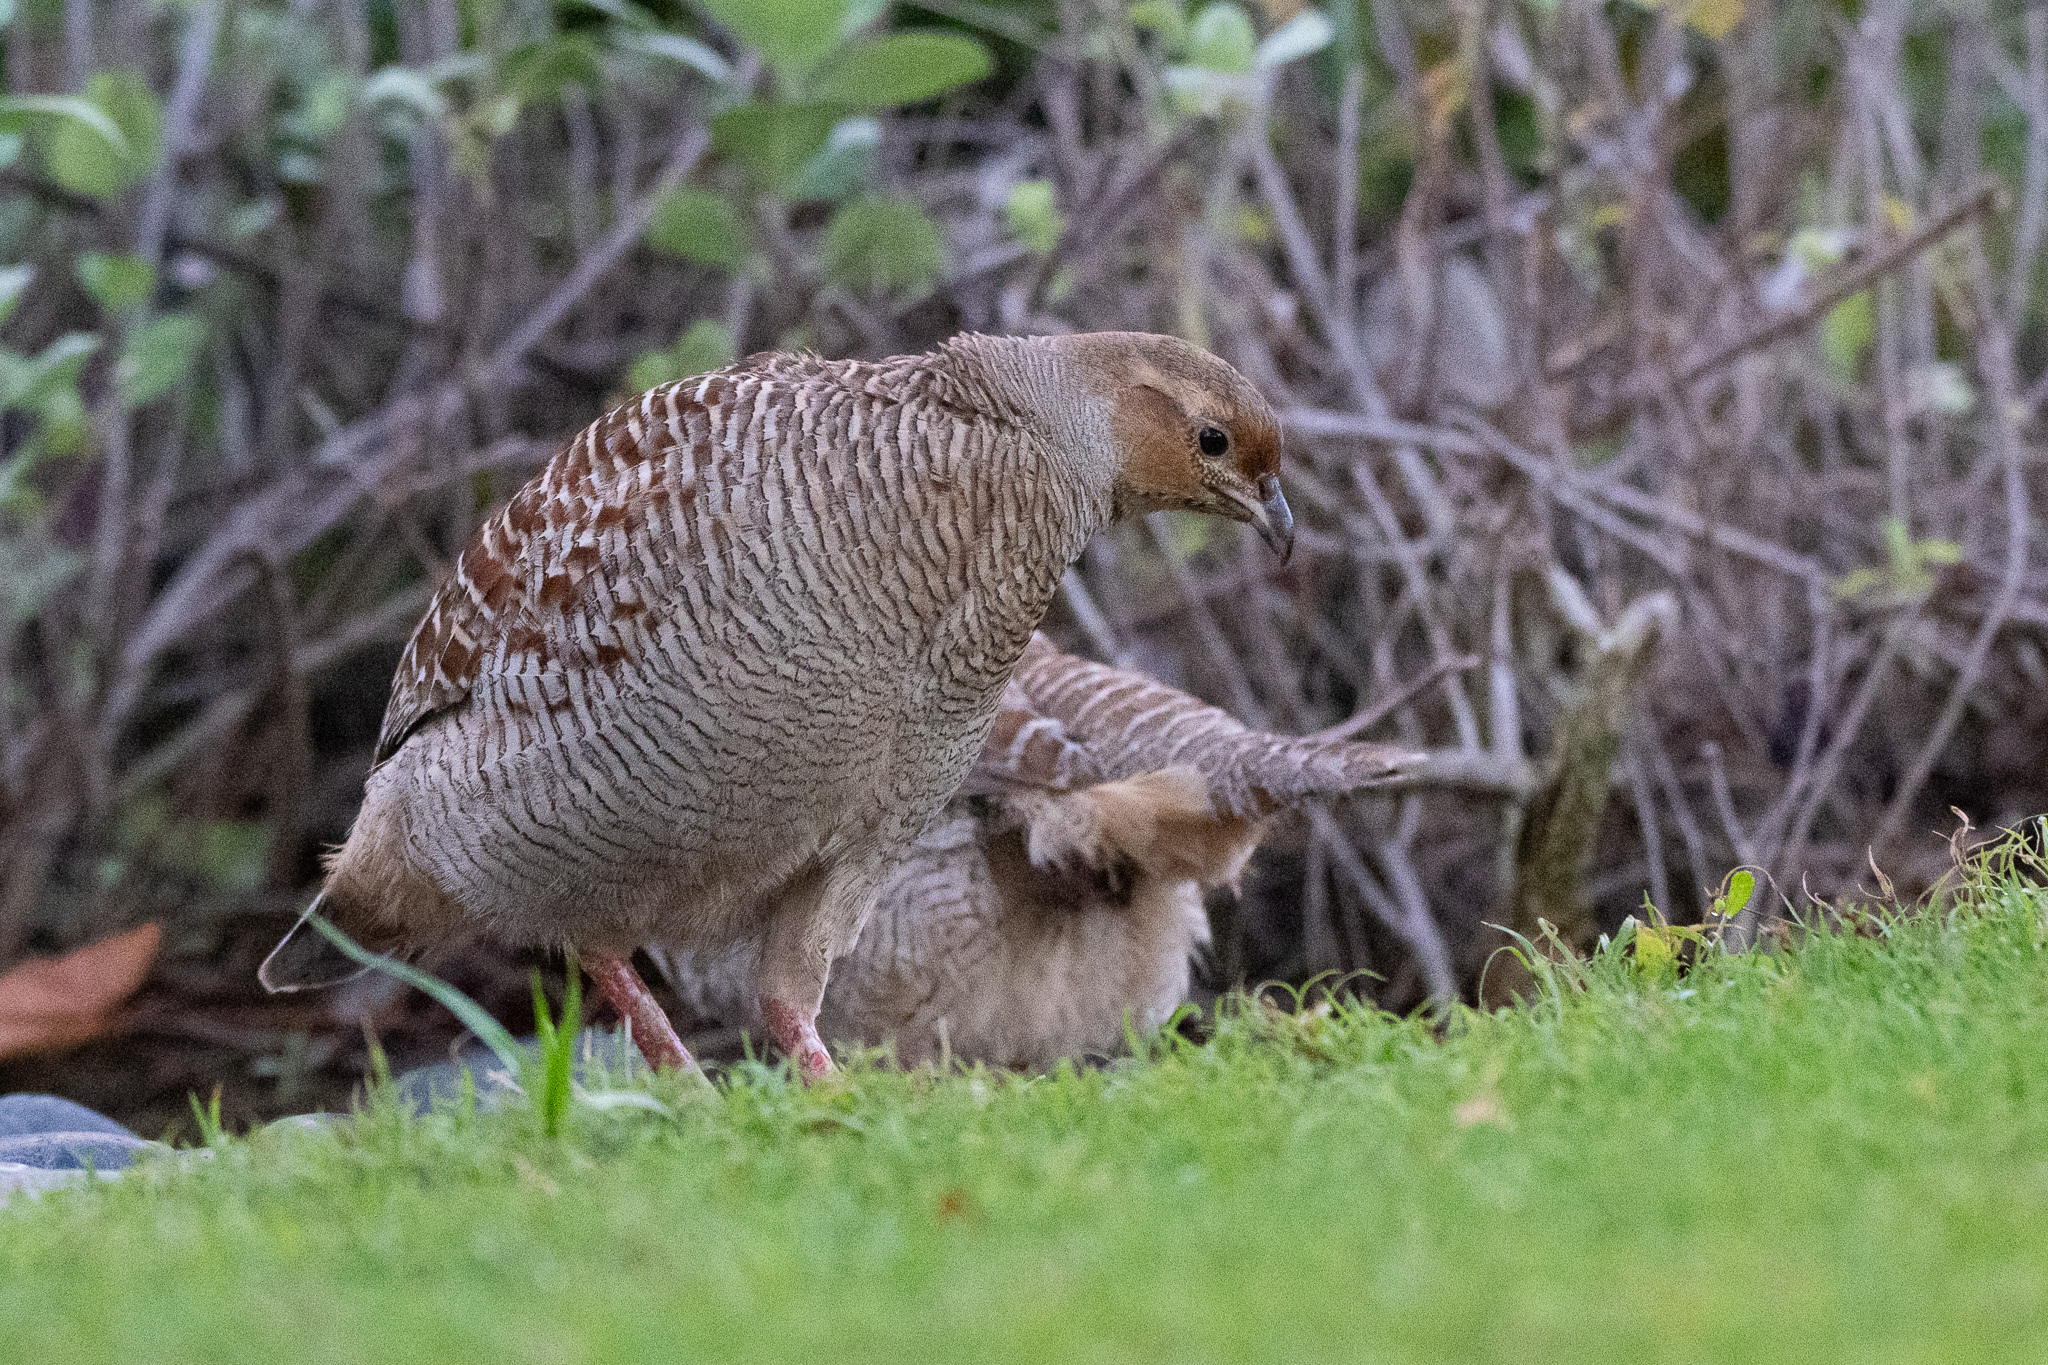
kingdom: Animalia
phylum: Chordata
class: Aves
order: Galliformes
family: Phasianidae
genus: Ortygornis
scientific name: Ortygornis pondicerianus
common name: Grey francolin
